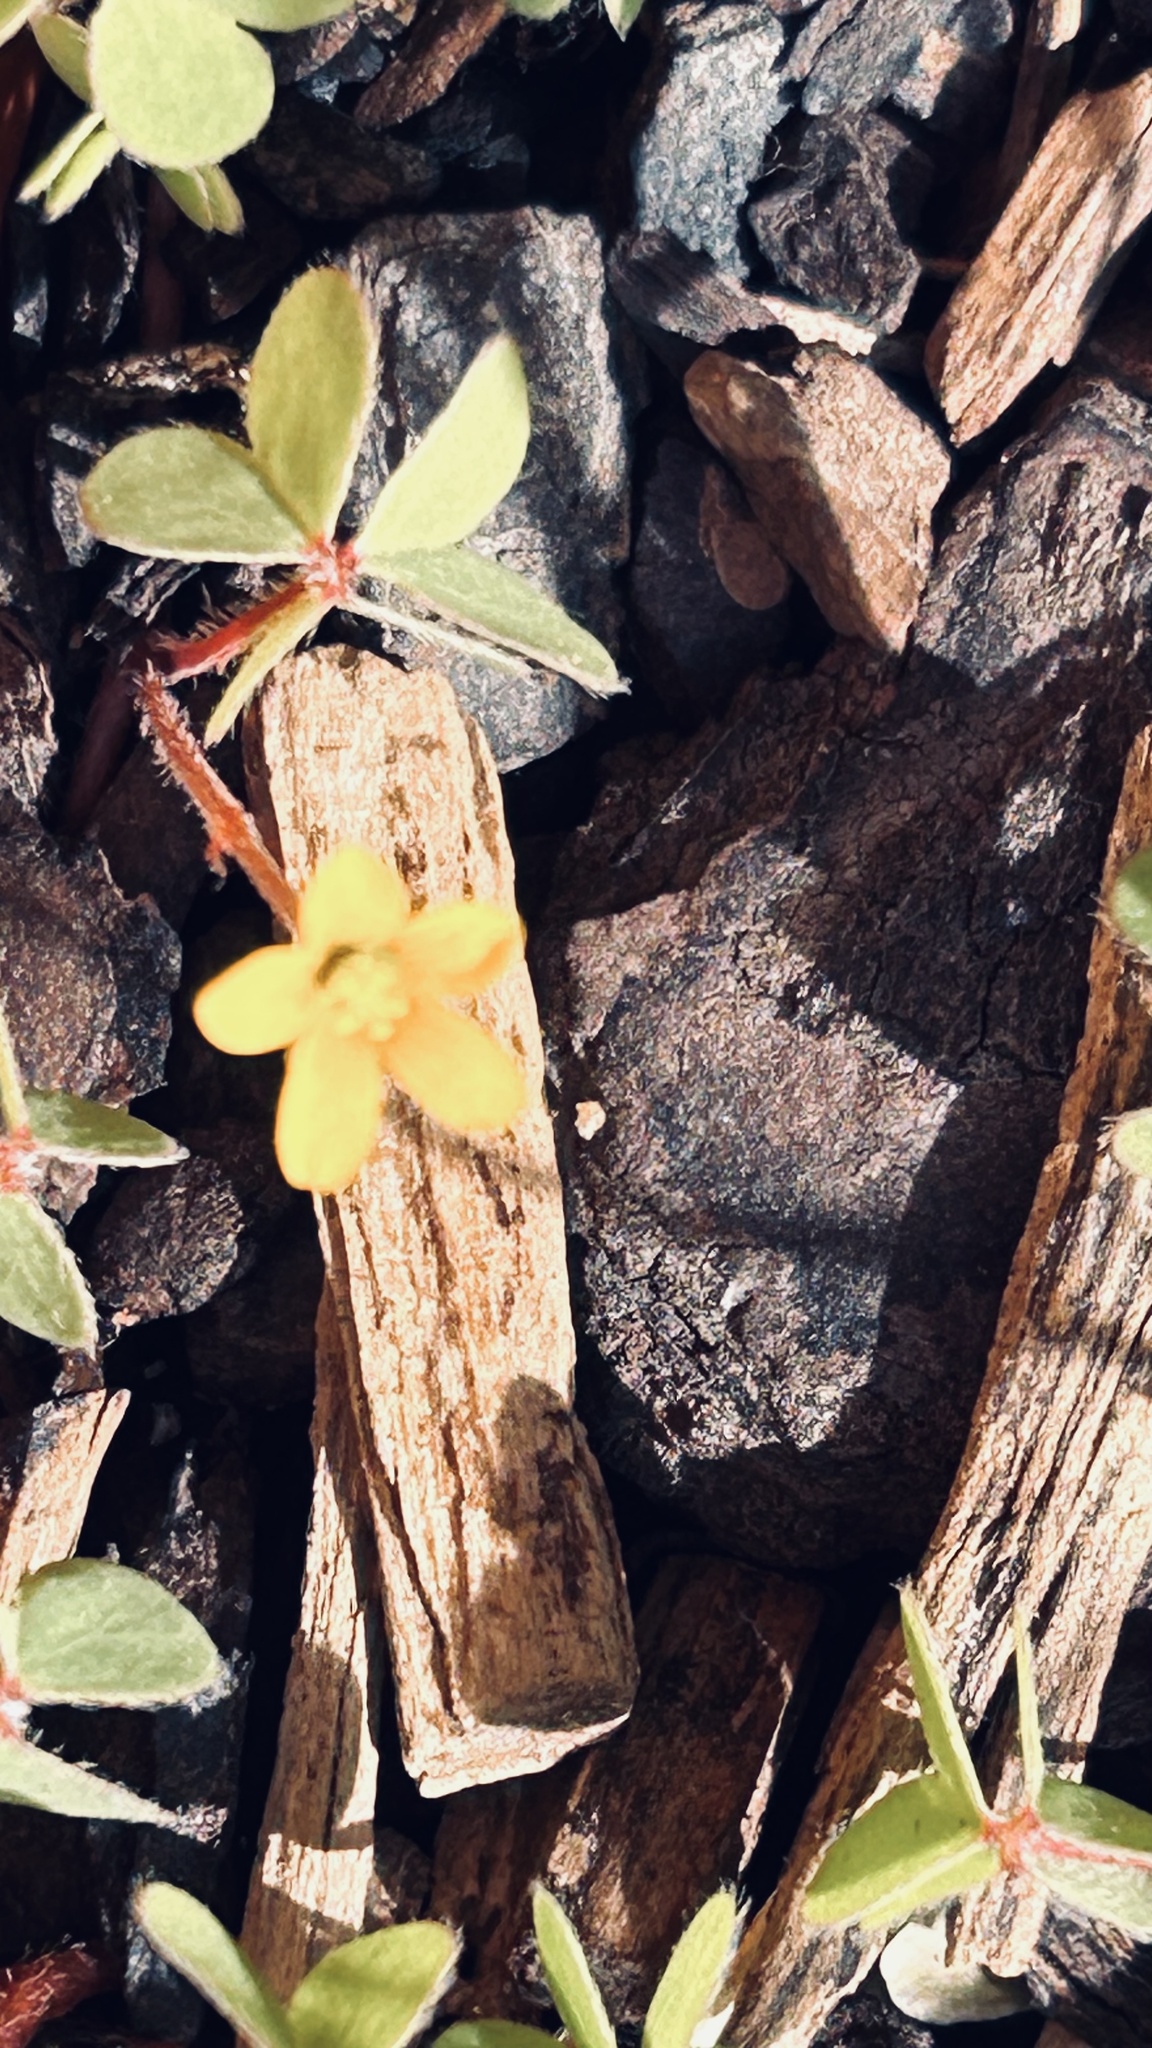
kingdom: Plantae
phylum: Tracheophyta
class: Magnoliopsida
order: Oxalidales
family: Oxalidaceae
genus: Oxalis
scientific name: Oxalis corniculata
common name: Procumbent yellow-sorrel
